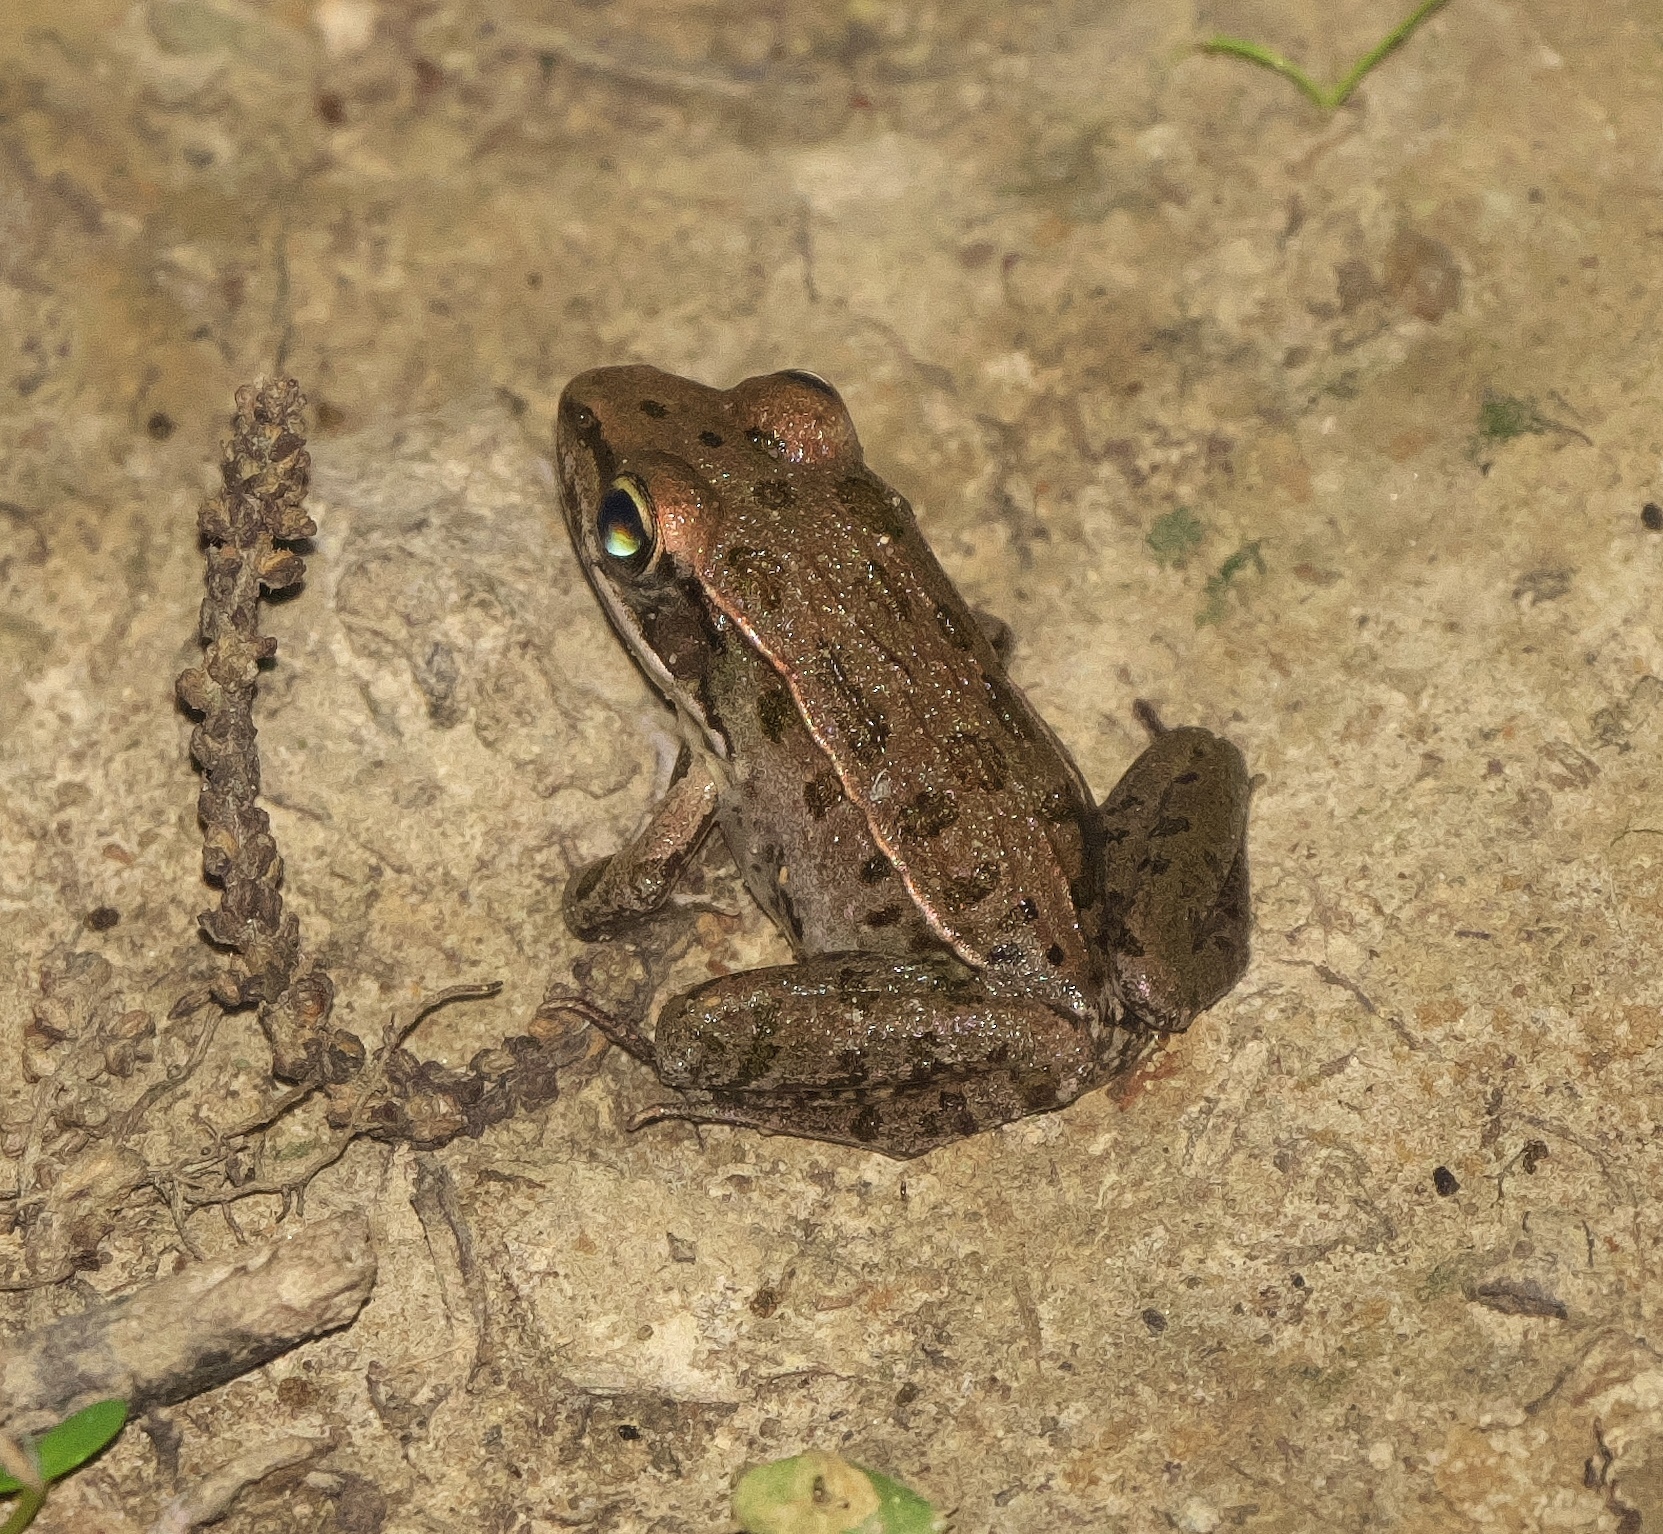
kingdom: Animalia
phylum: Chordata
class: Amphibia
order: Anura
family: Ranidae
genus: Lithobates
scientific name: Lithobates sphenocephalus
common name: Southern leopard frog
